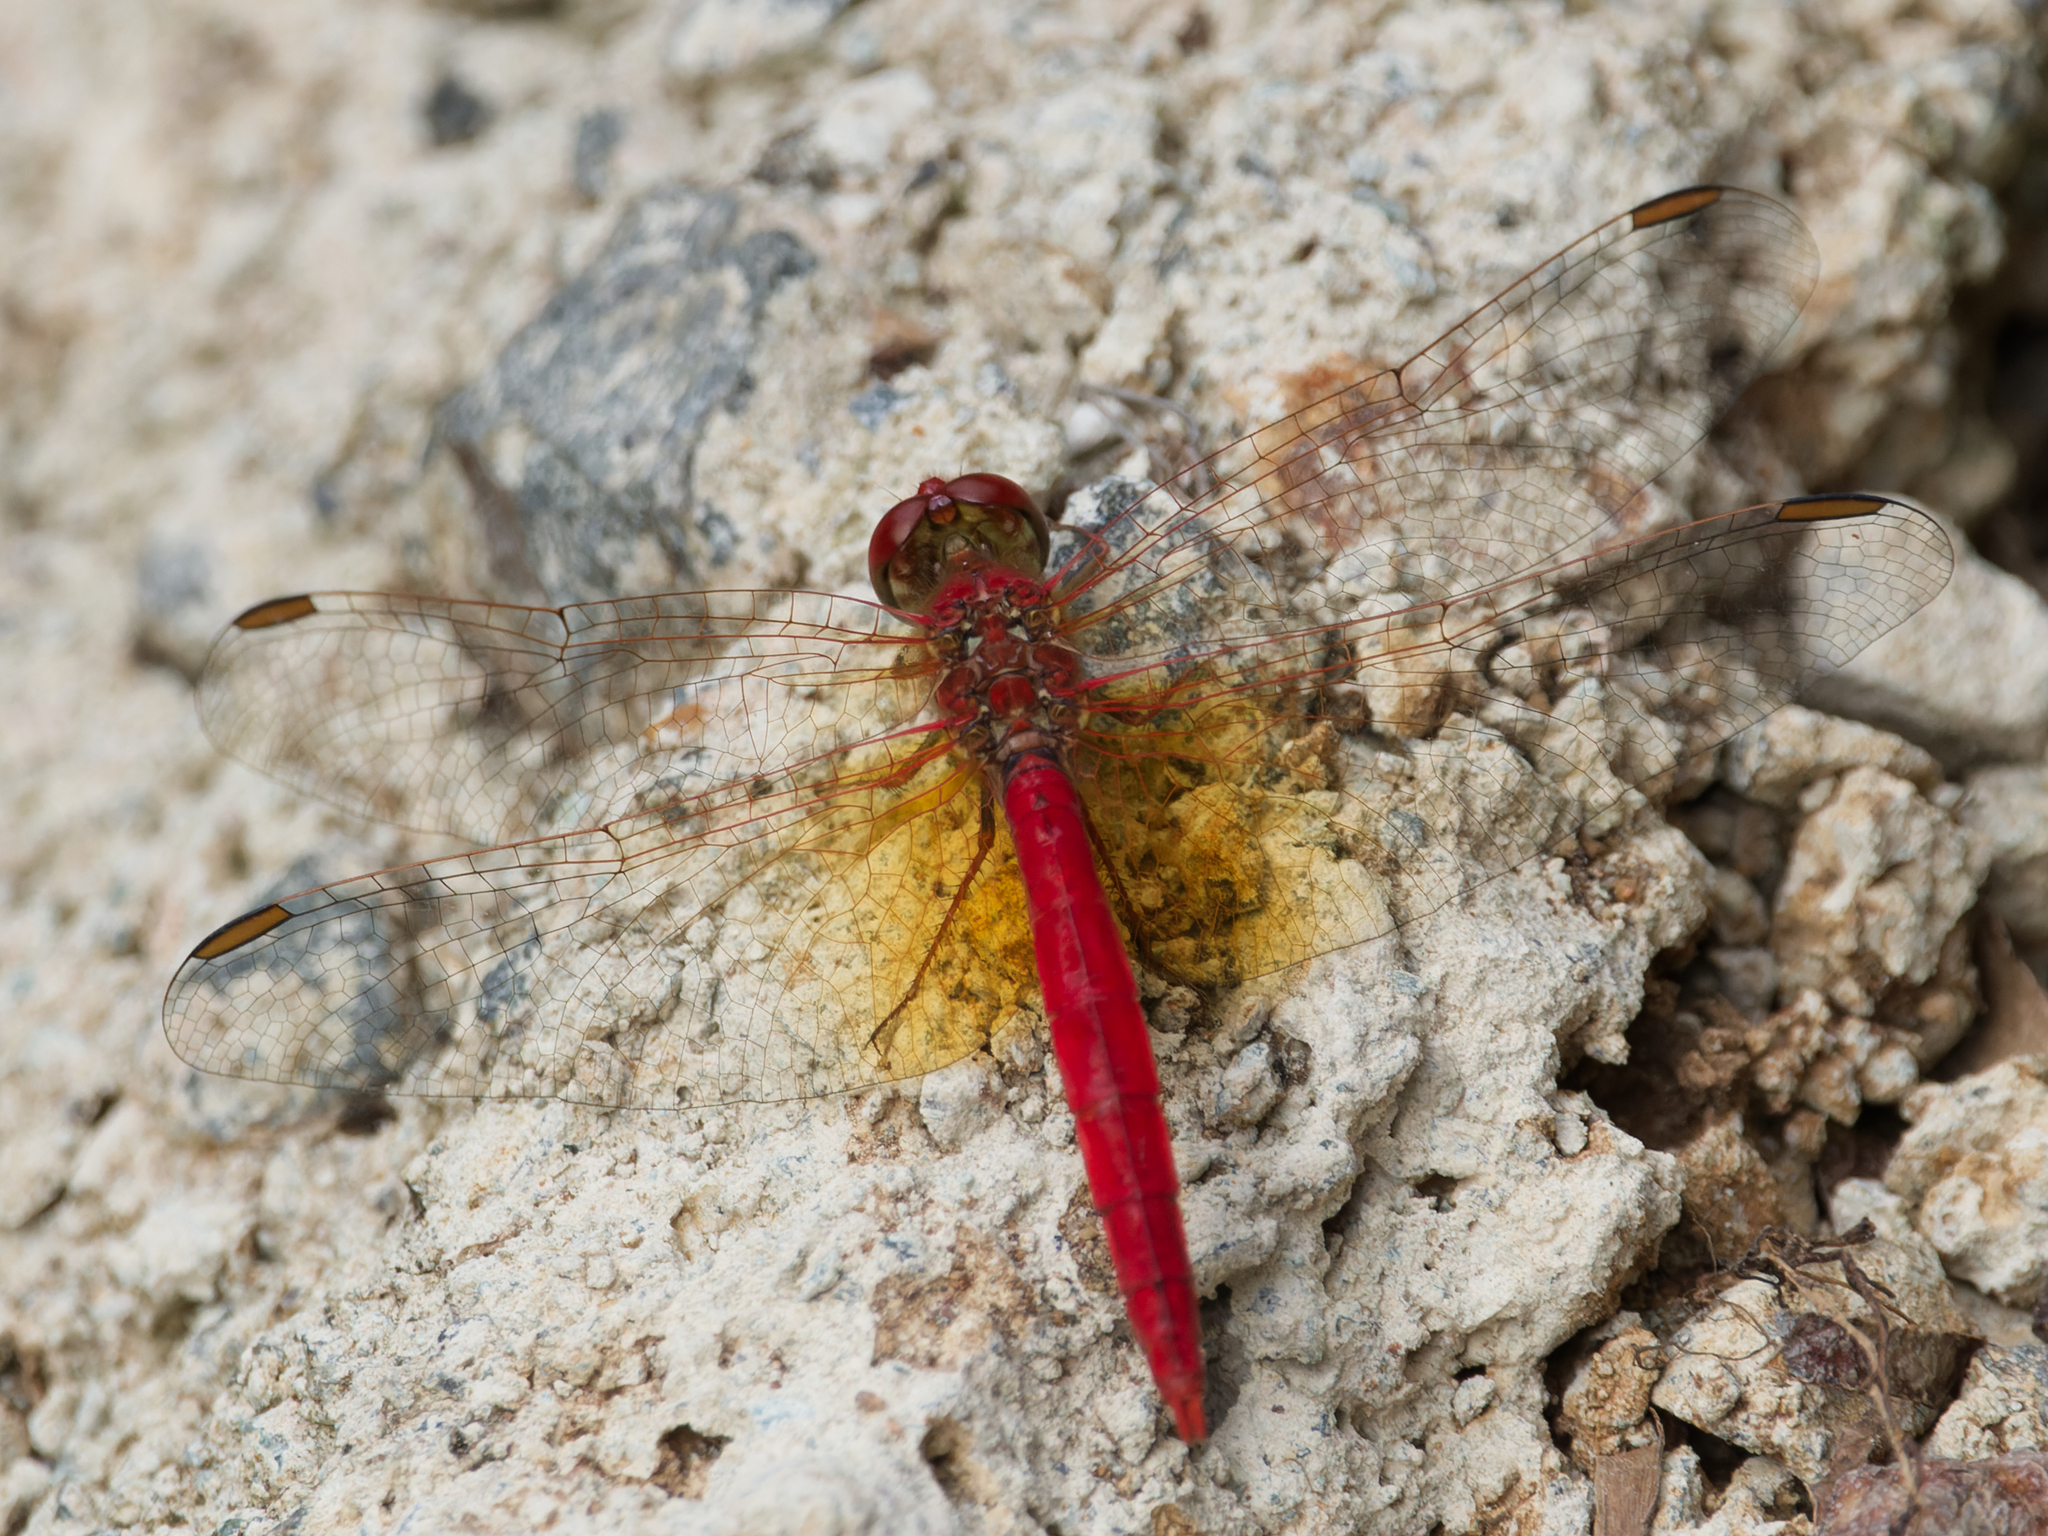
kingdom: Animalia
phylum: Arthropoda
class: Insecta
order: Odonata
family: Libellulidae
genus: Diplacodes
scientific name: Diplacodes haematodes
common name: Scarlet percher
